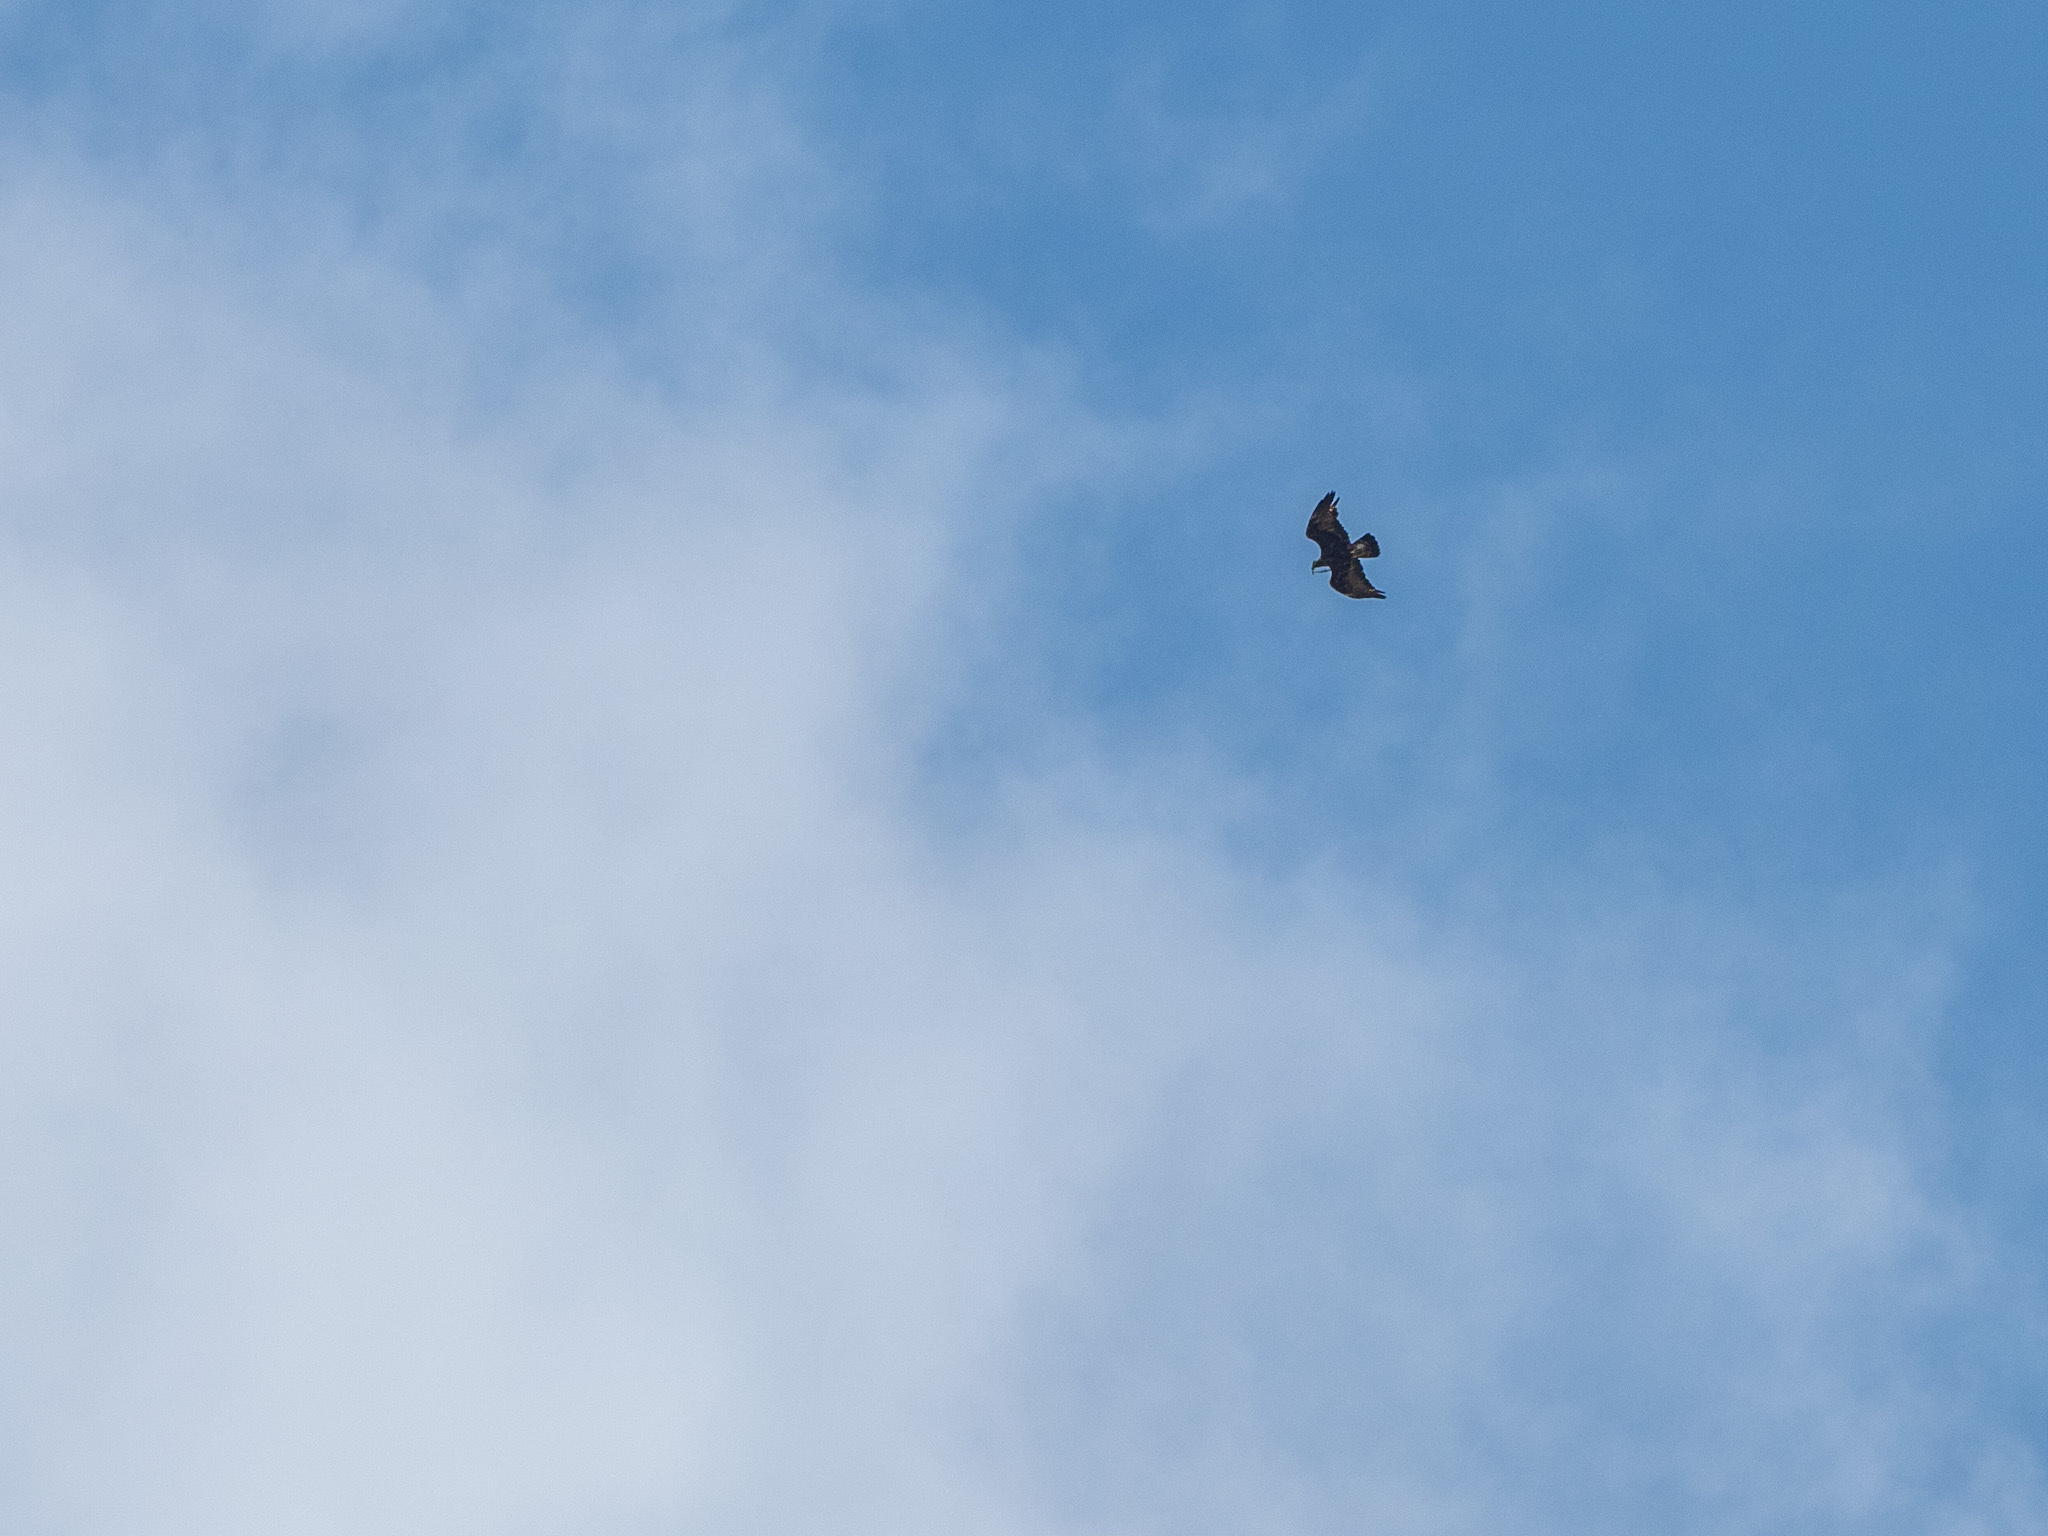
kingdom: Animalia
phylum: Chordata
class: Aves
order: Accipitriformes
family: Accipitridae
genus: Aquila
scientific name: Aquila chrysaetos
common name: Golden eagle
